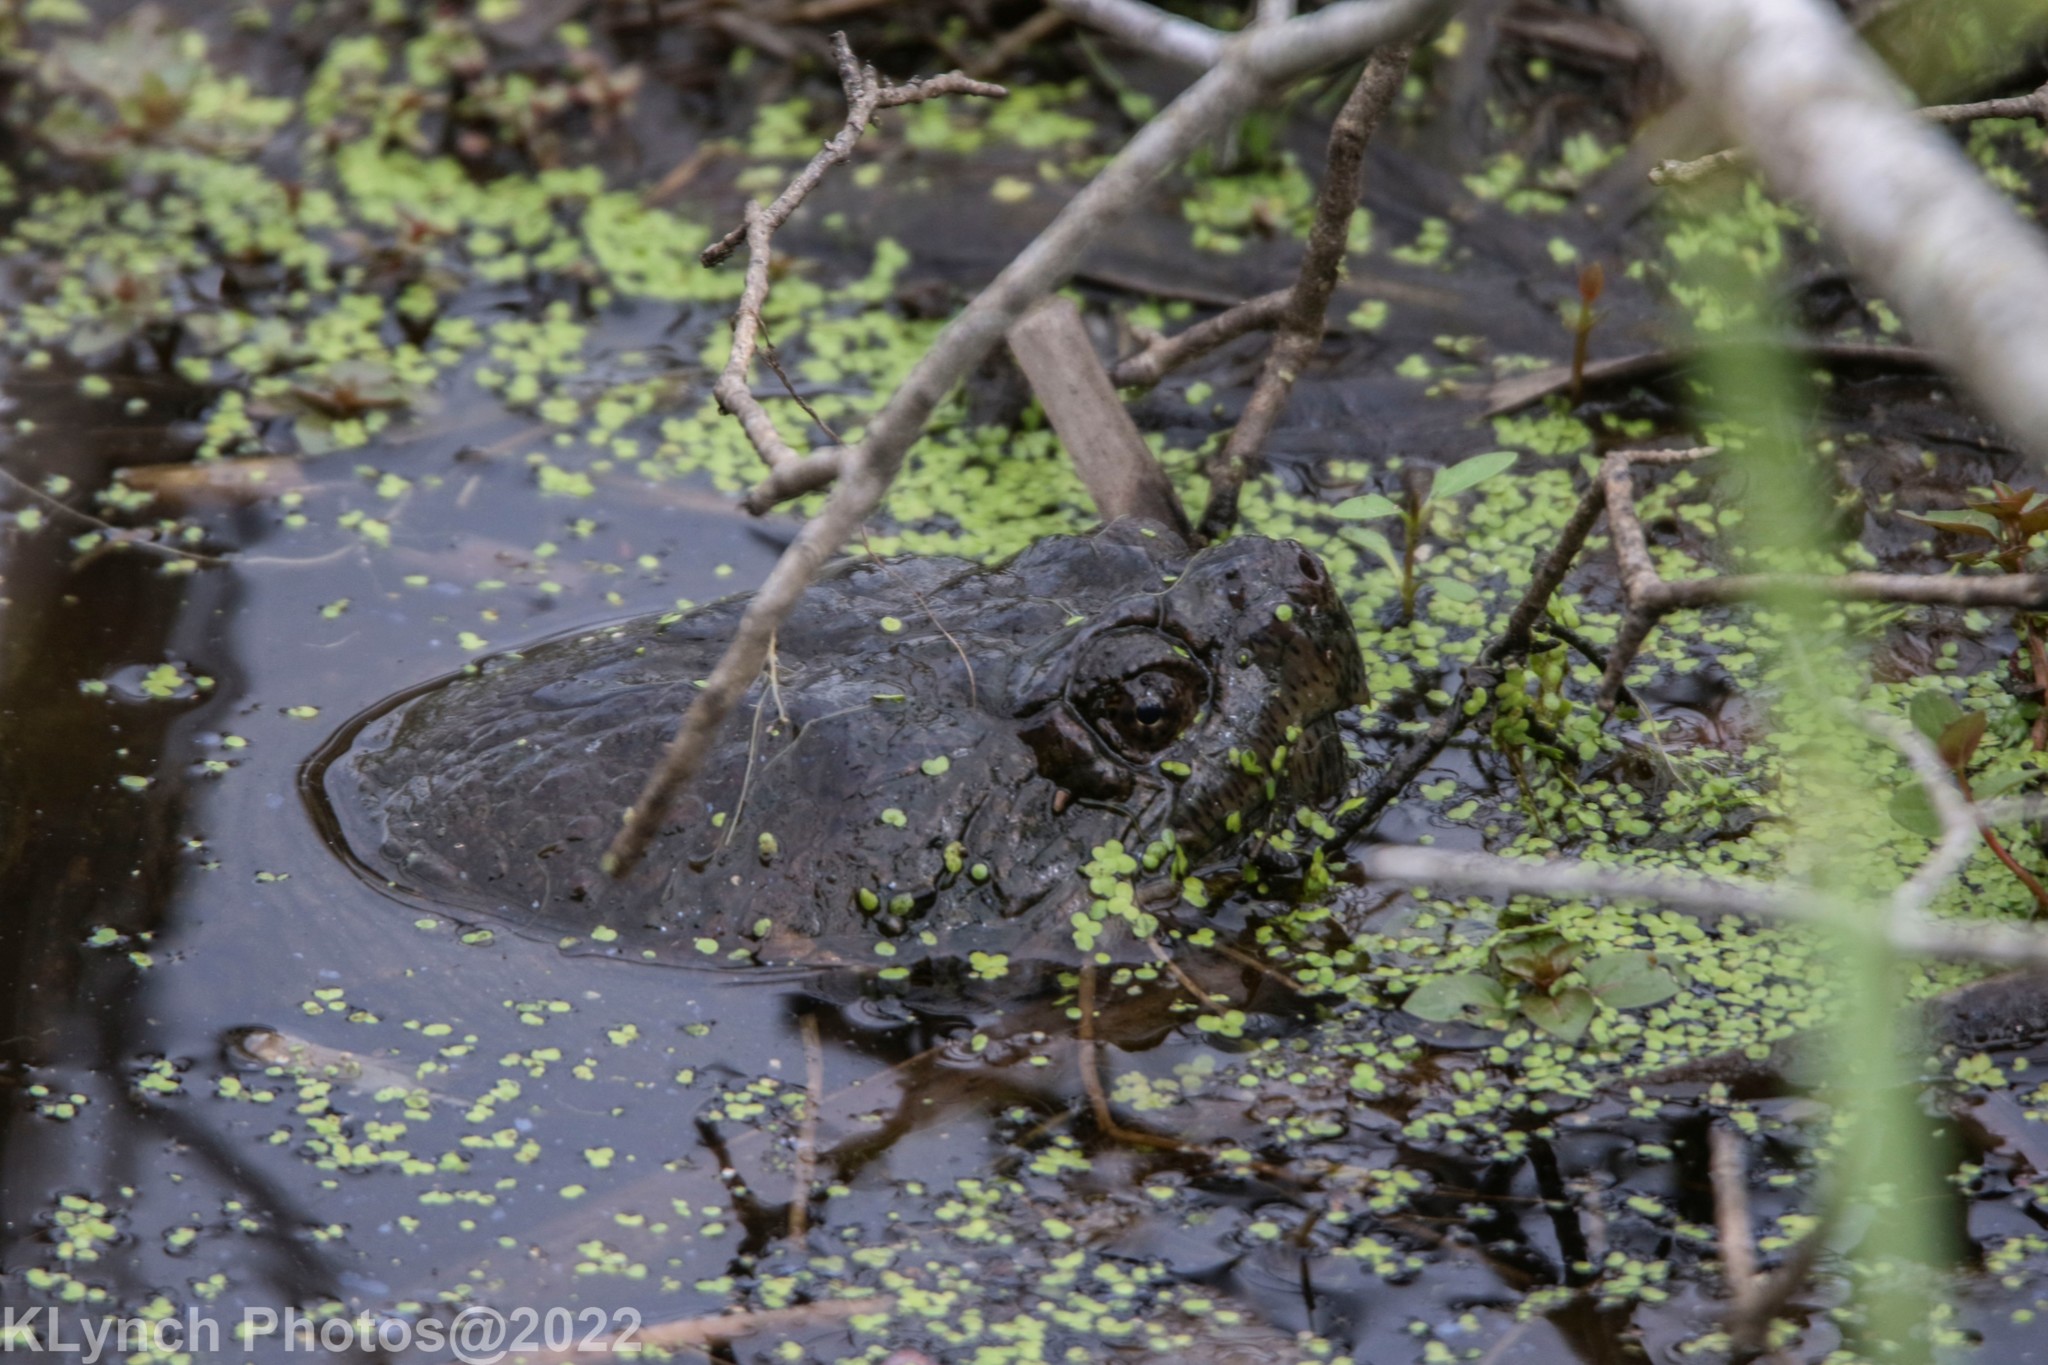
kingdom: Animalia
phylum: Chordata
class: Testudines
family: Chelydridae
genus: Chelydra
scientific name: Chelydra serpentina
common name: Common snapping turtle
